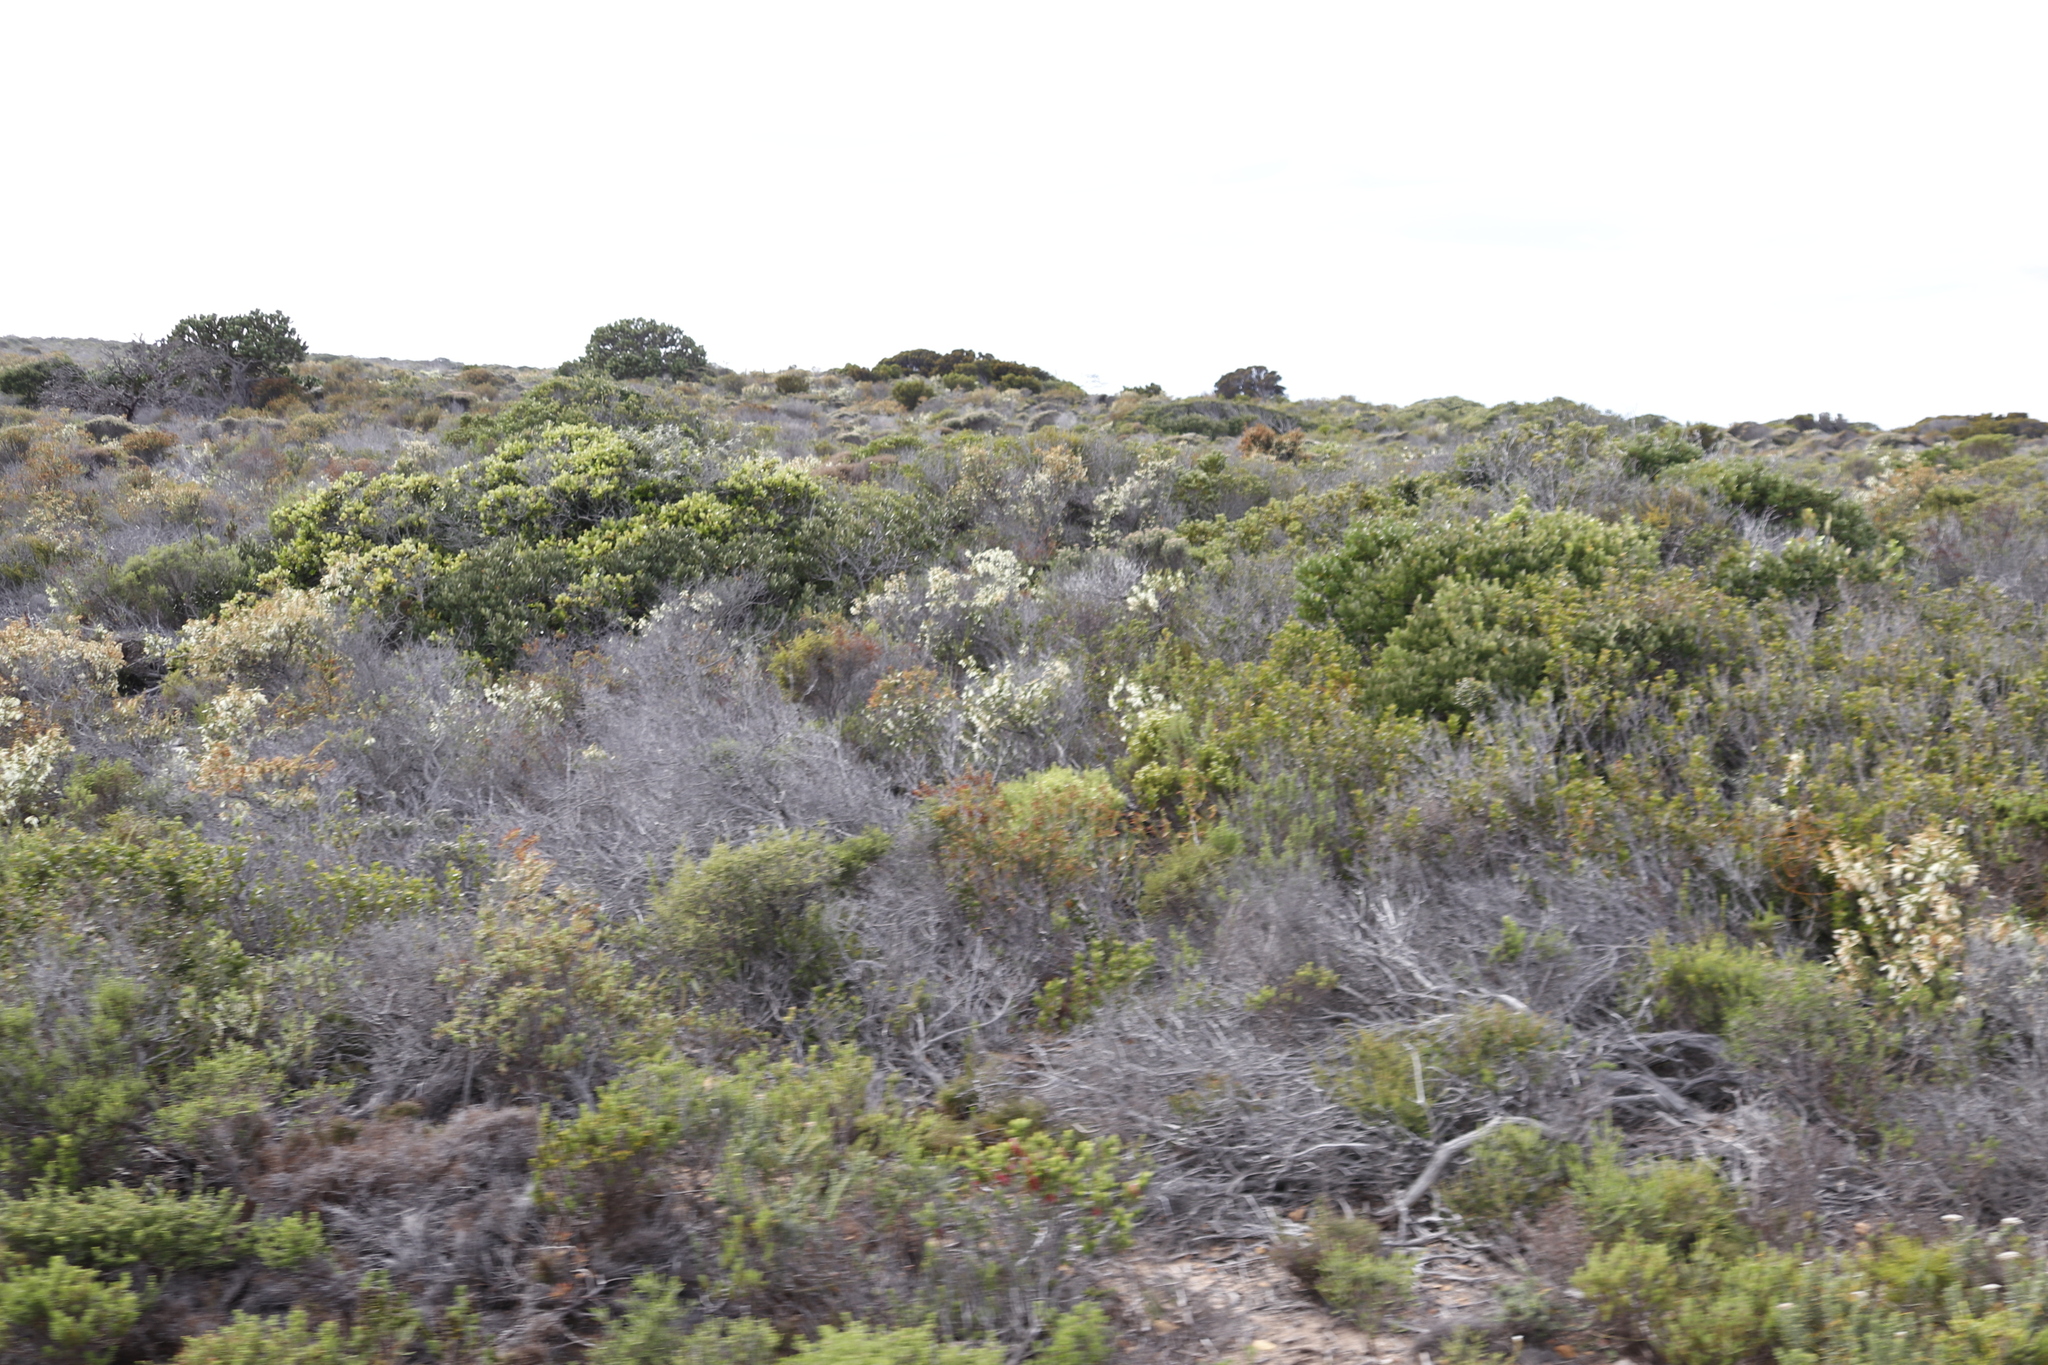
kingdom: Plantae
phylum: Tracheophyta
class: Magnoliopsida
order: Ericales
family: Ericaceae
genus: Erica
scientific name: Erica mammosa
